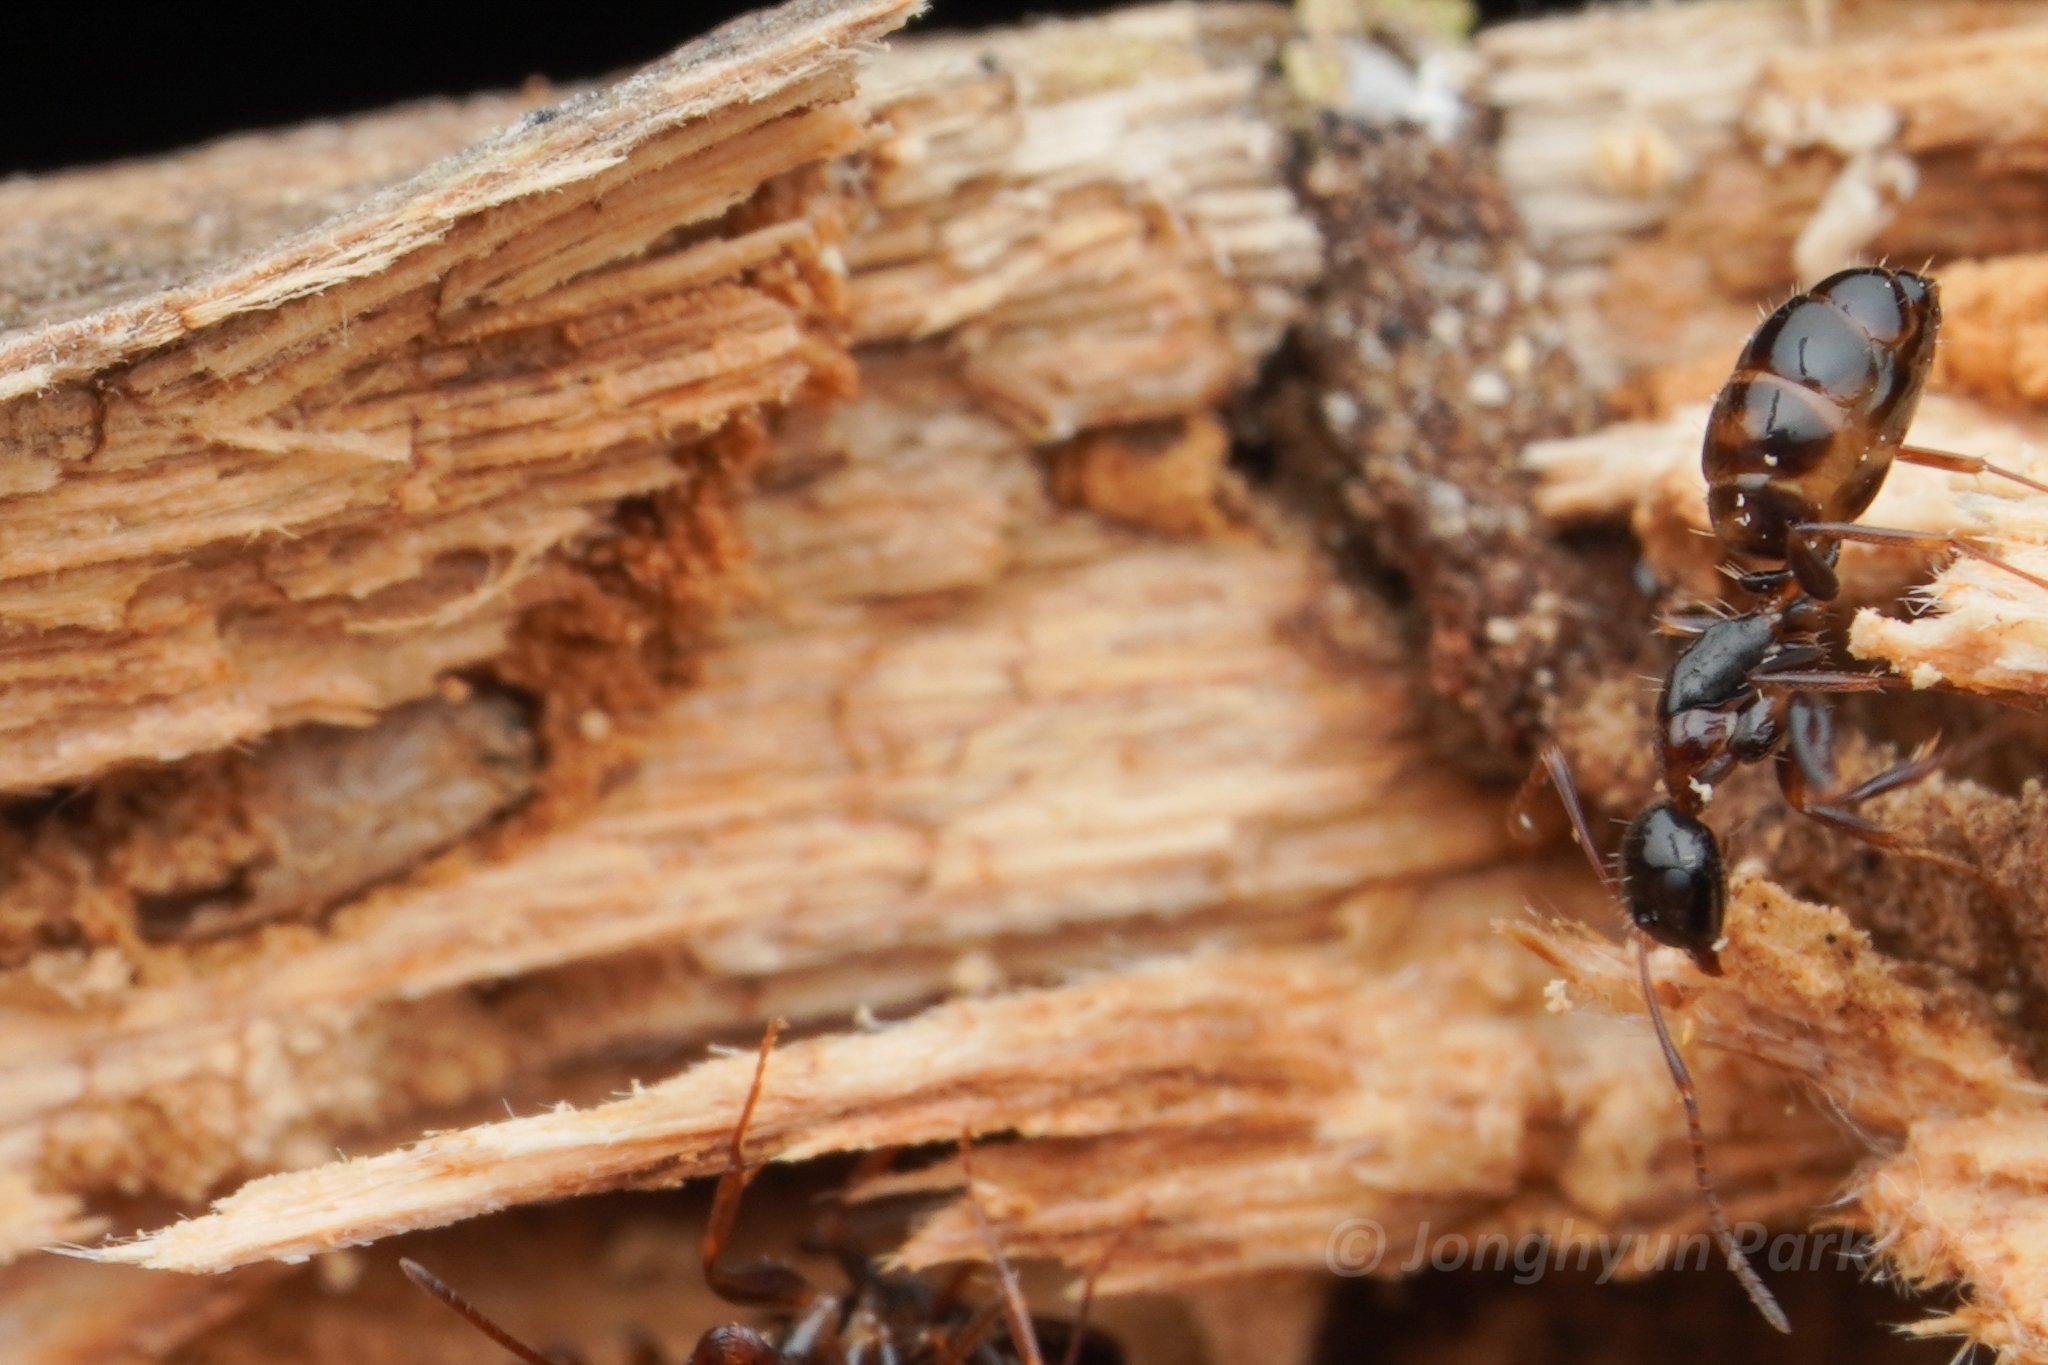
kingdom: Animalia
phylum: Arthropoda
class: Insecta
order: Hymenoptera
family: Formicidae
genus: Camponotus
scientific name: Camponotus nawai
